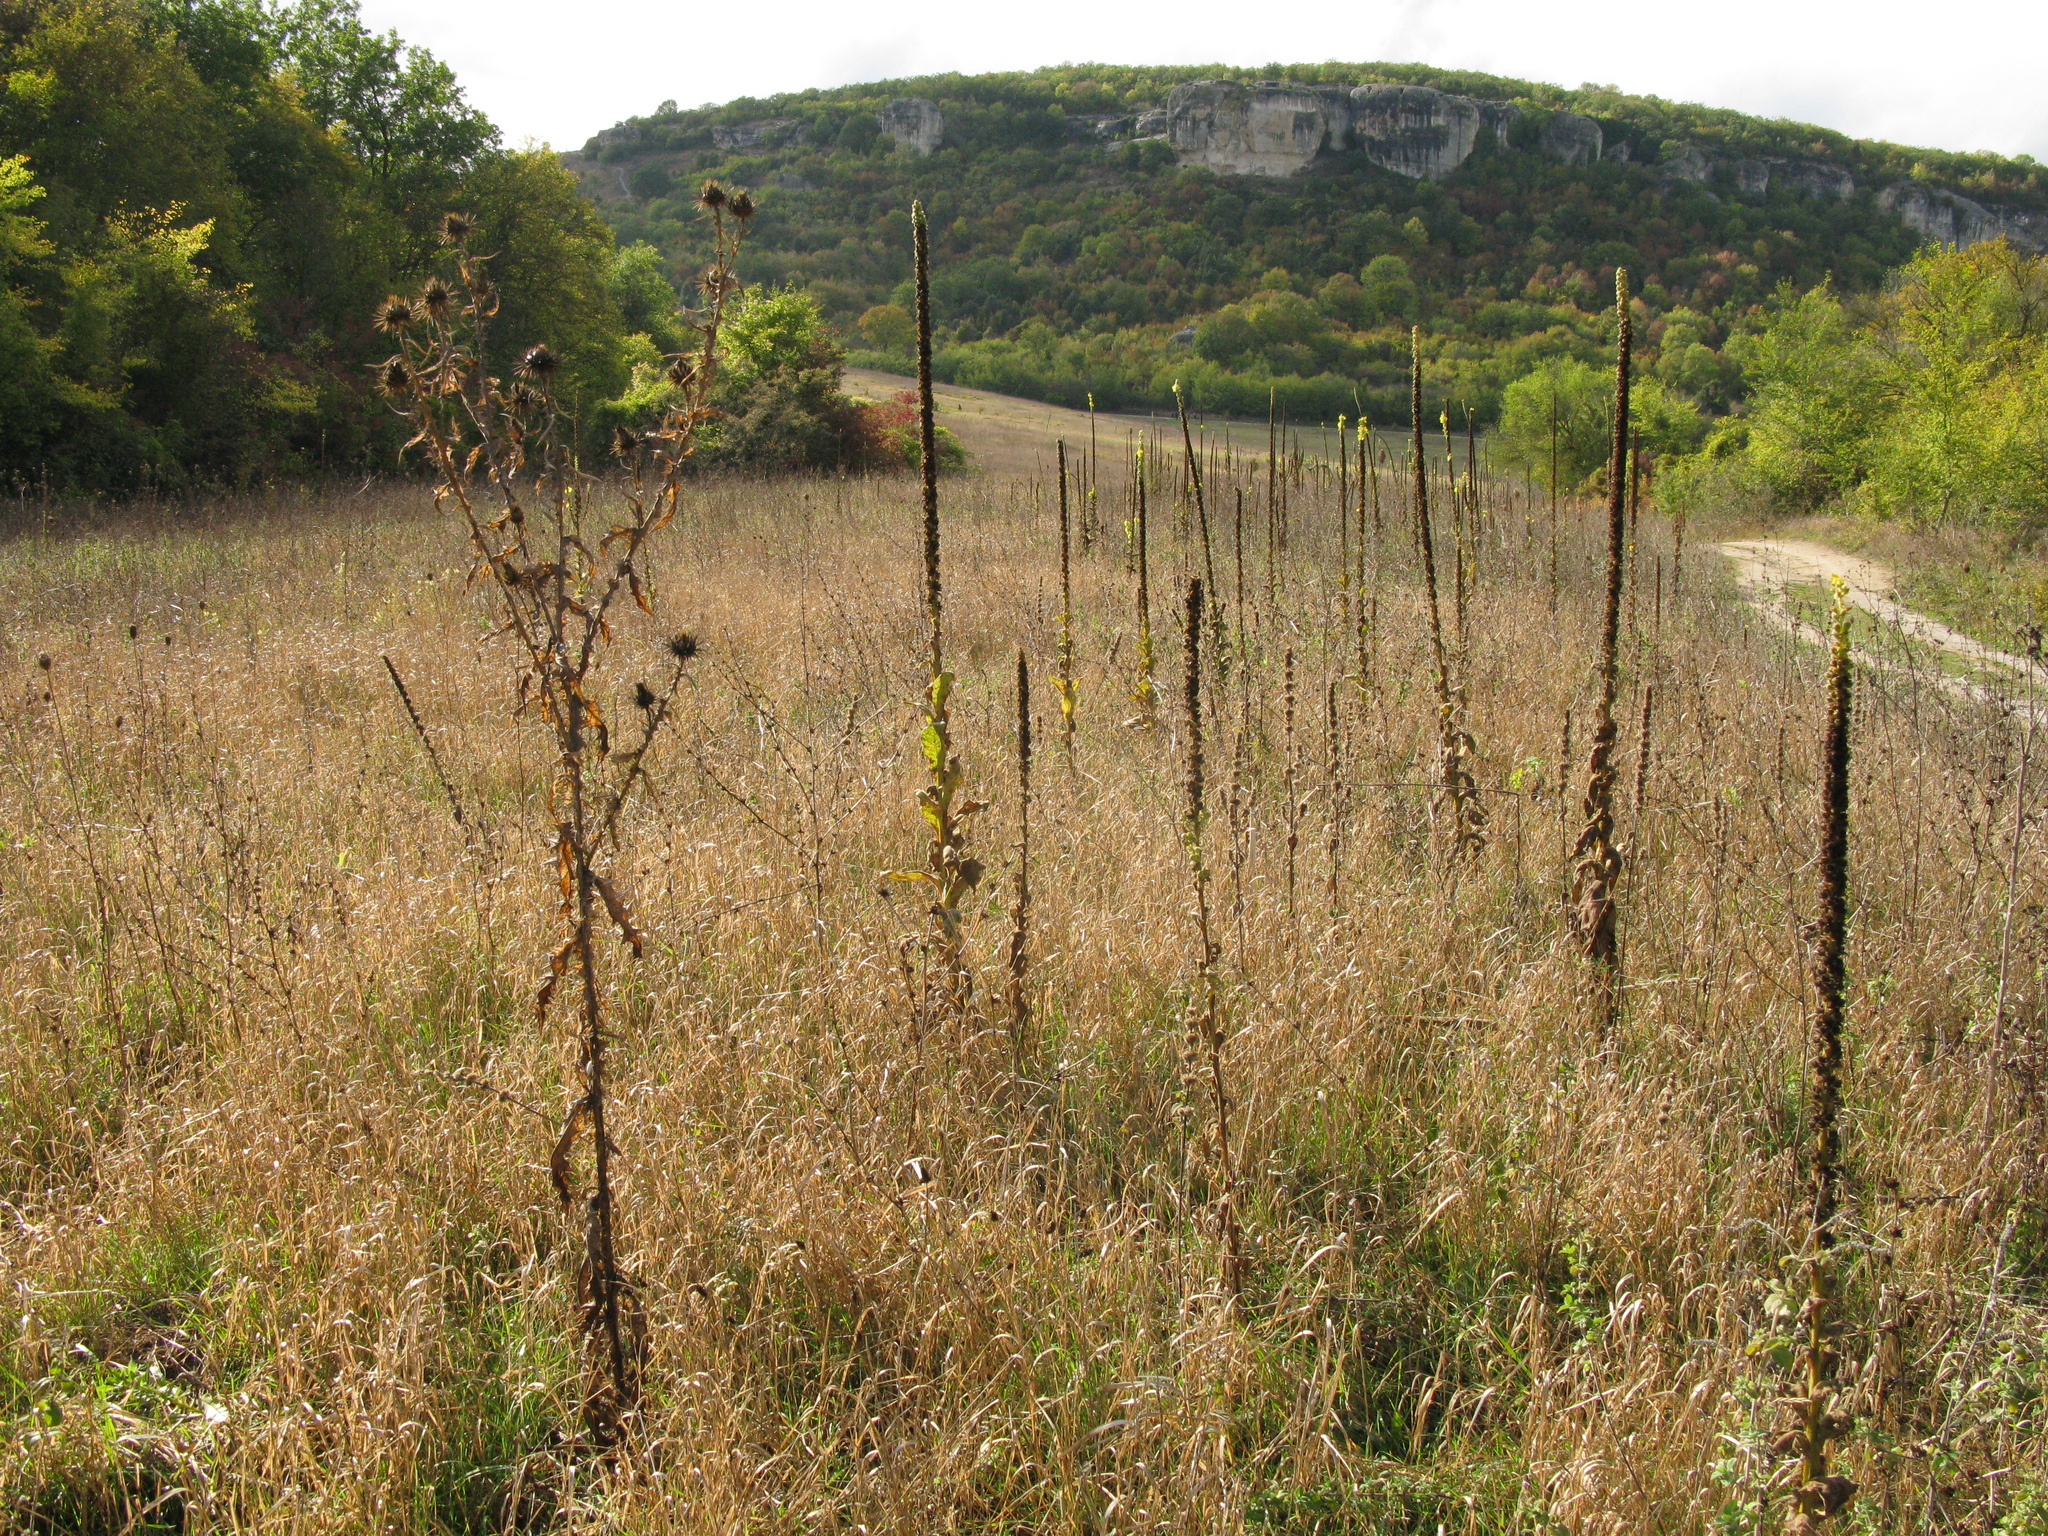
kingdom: Plantae
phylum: Tracheophyta
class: Magnoliopsida
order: Asterales
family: Asteraceae
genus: Onopordum
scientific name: Onopordum tauricum
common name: Bull cottonthistle
